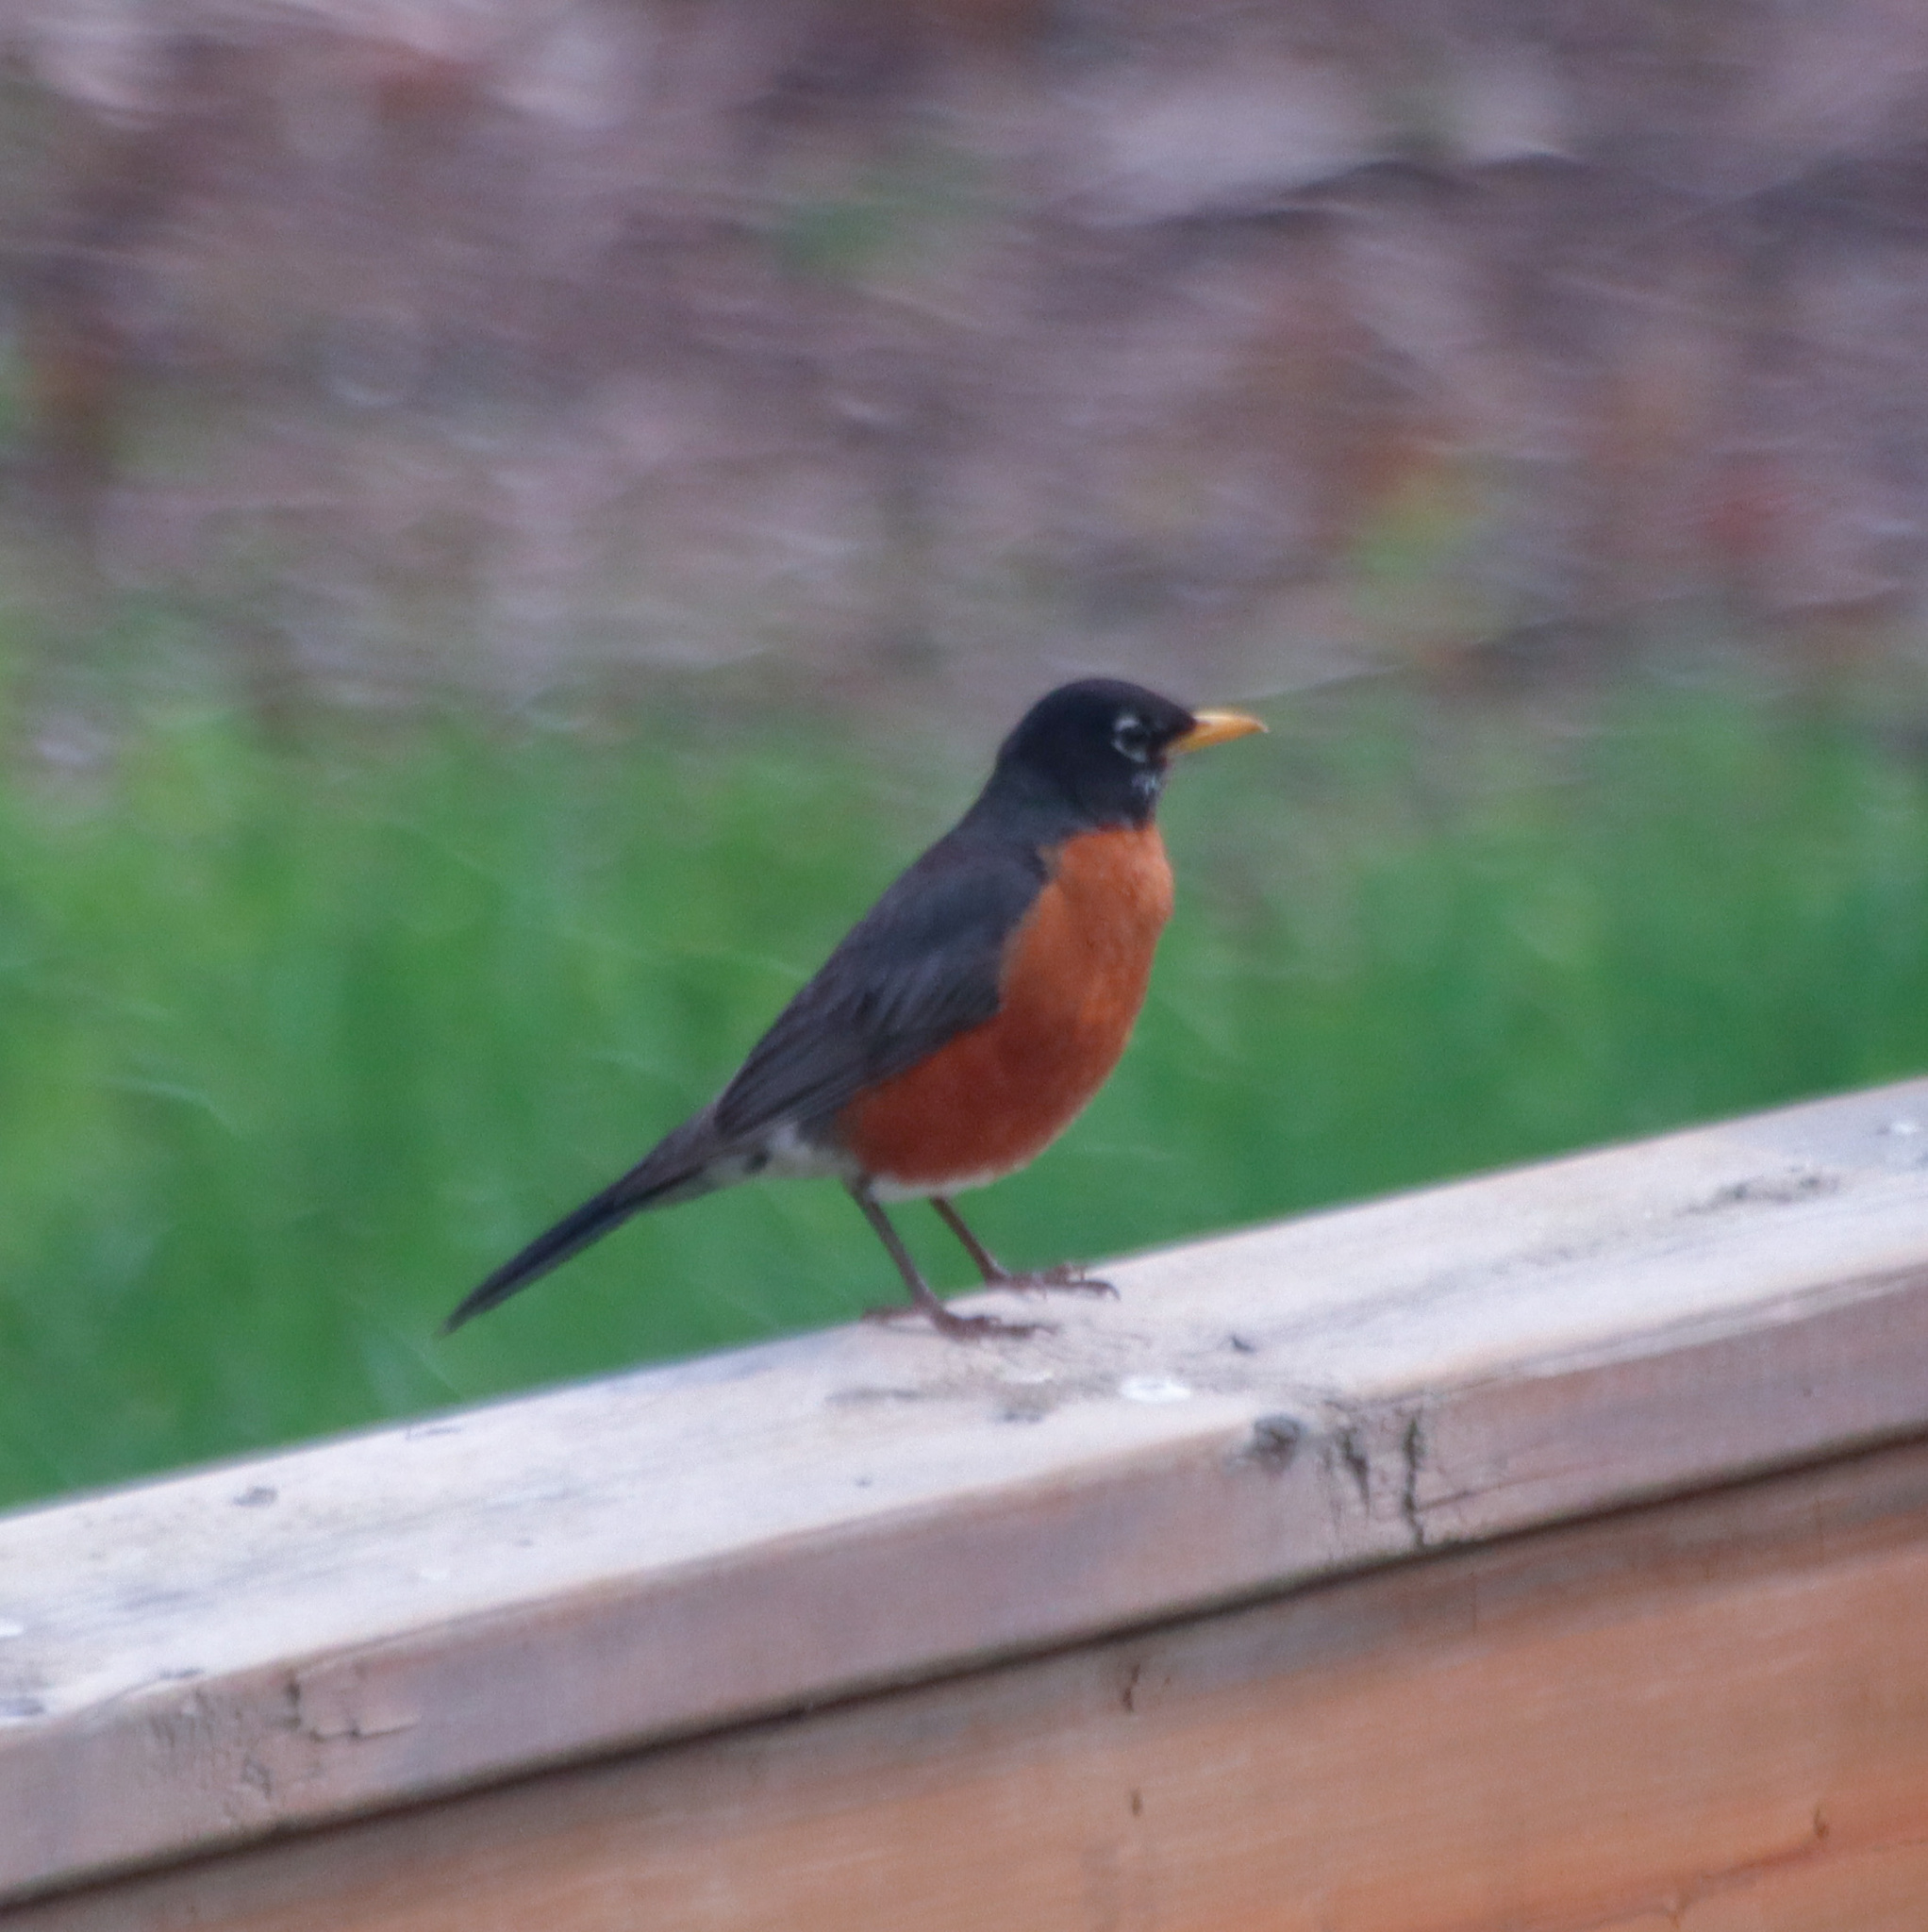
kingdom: Animalia
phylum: Chordata
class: Aves
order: Passeriformes
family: Turdidae
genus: Turdus
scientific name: Turdus migratorius
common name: American robin
